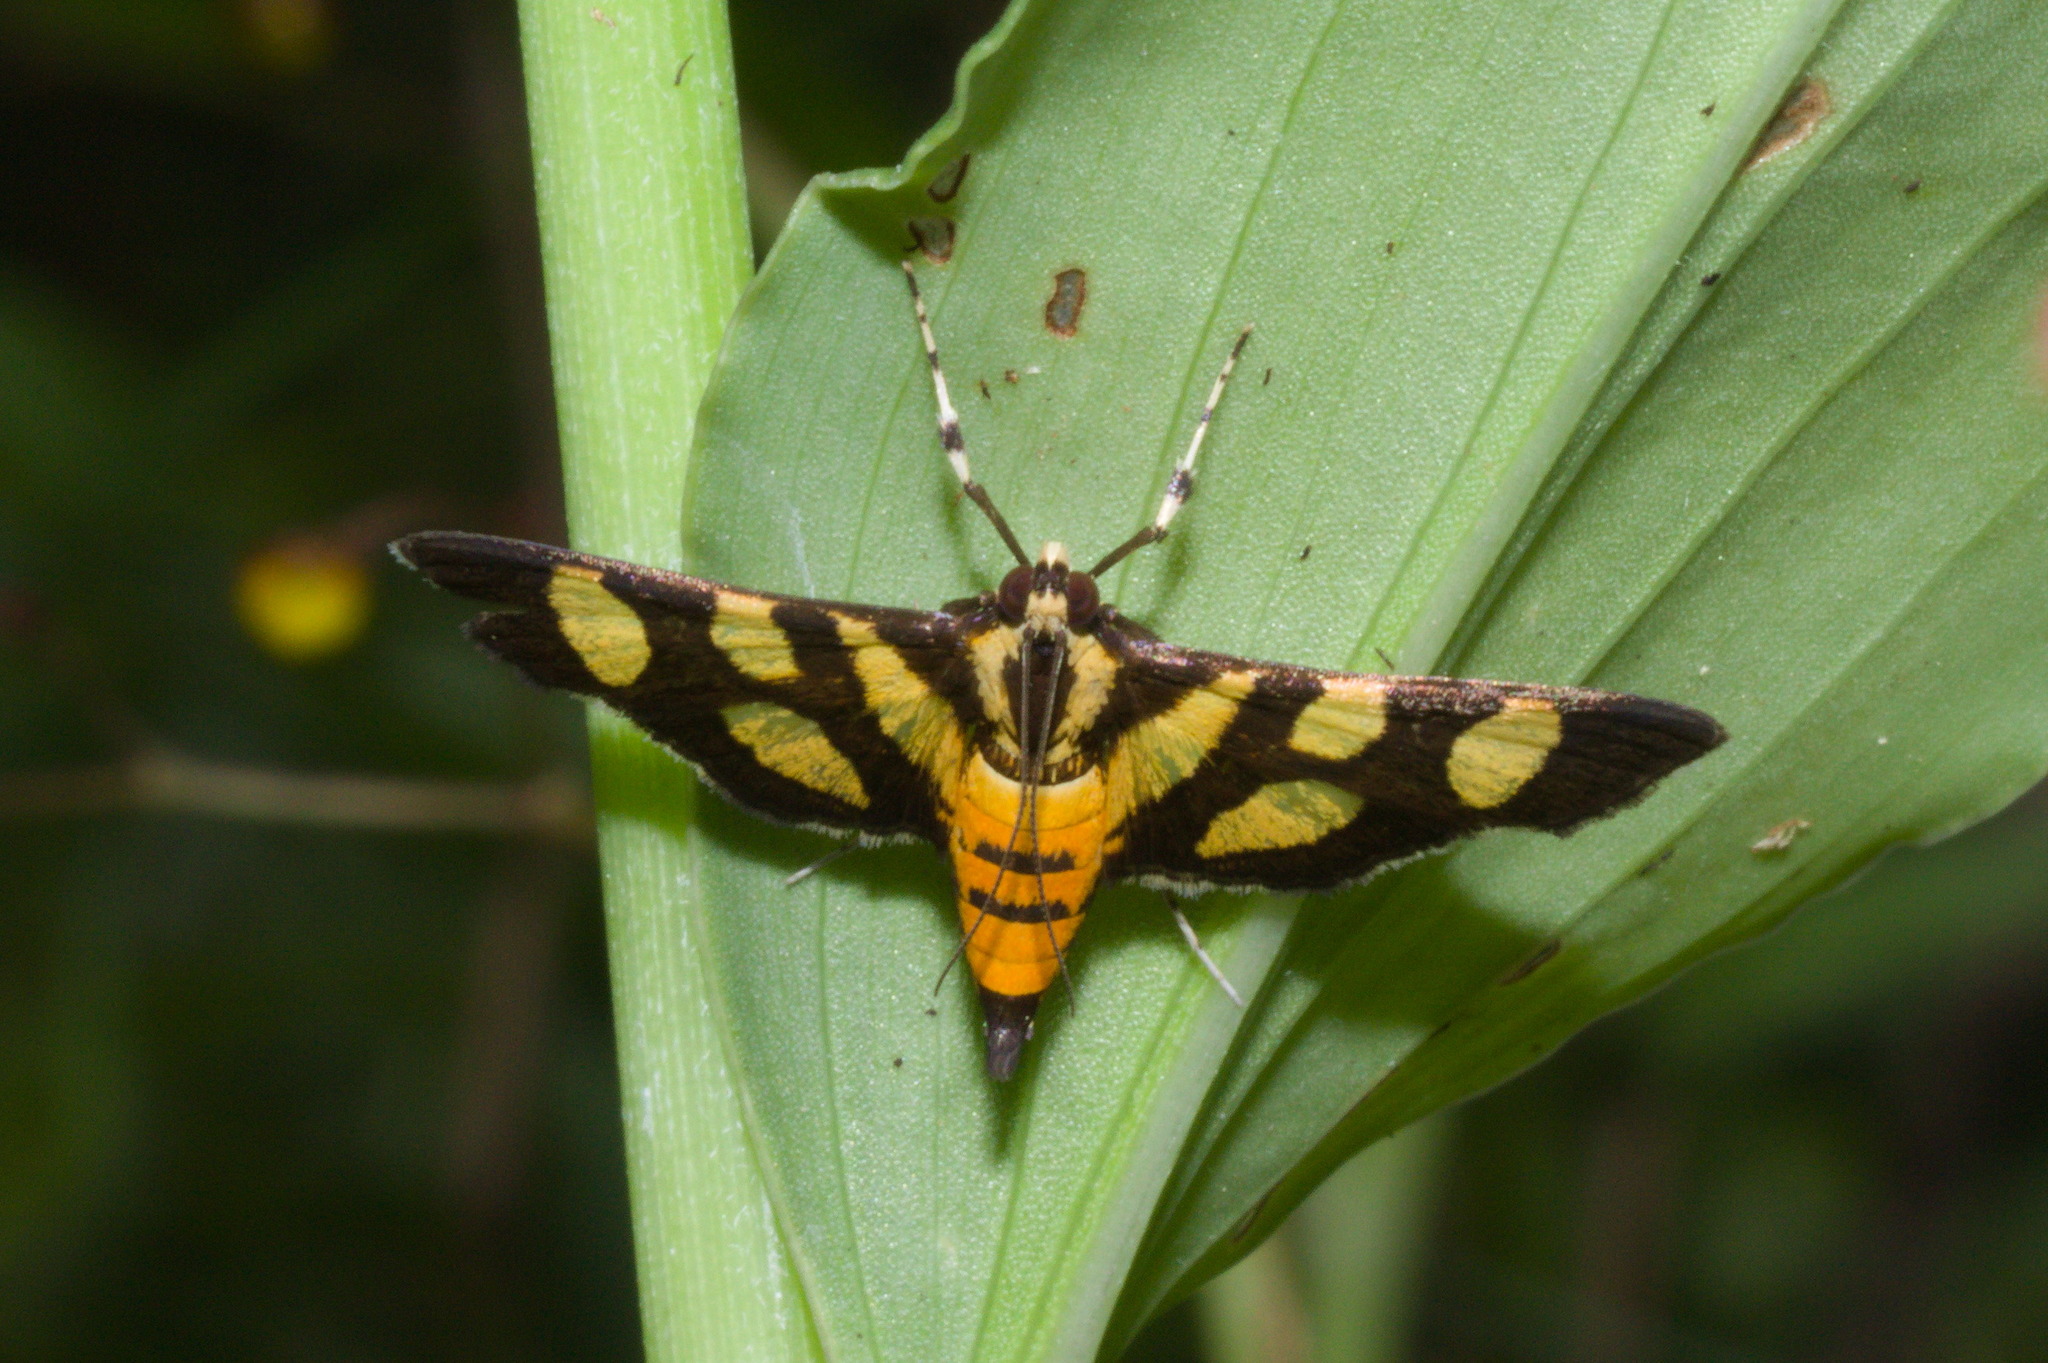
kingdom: Animalia
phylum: Arthropoda
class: Insecta
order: Lepidoptera
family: Crambidae
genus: Syngamia
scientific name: Syngamia florella
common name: Orange-spotted flower moth
